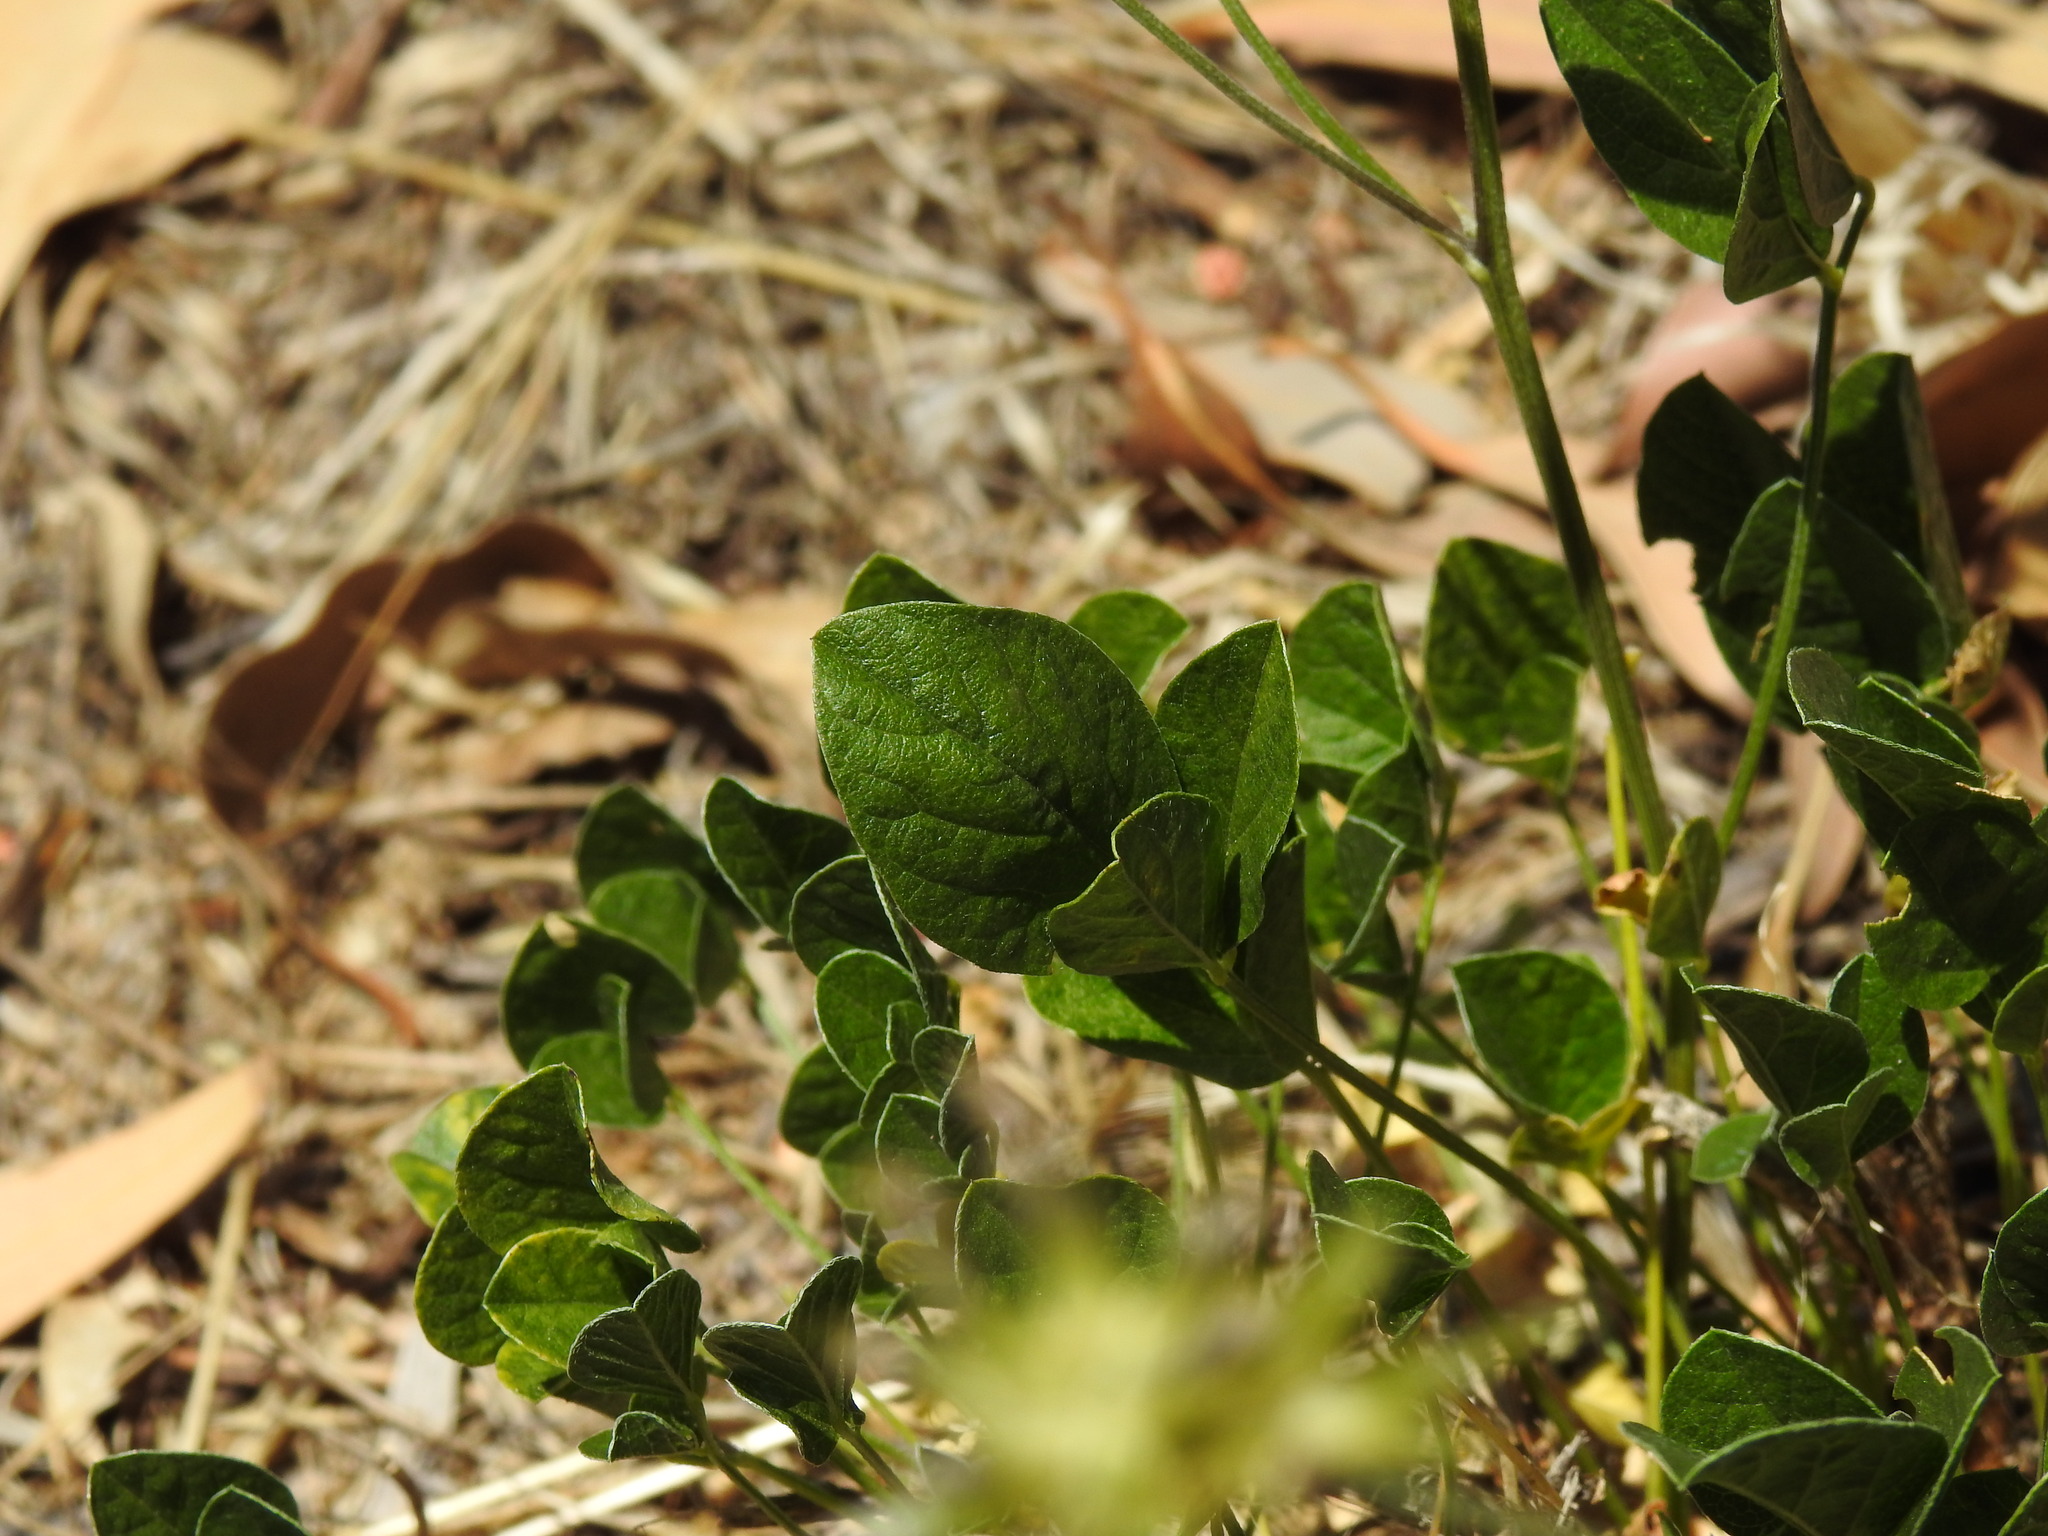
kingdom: Plantae
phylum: Tracheophyta
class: Magnoliopsida
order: Fabales
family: Fabaceae
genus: Bituminaria
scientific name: Bituminaria bituminosa
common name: Arabian pea
